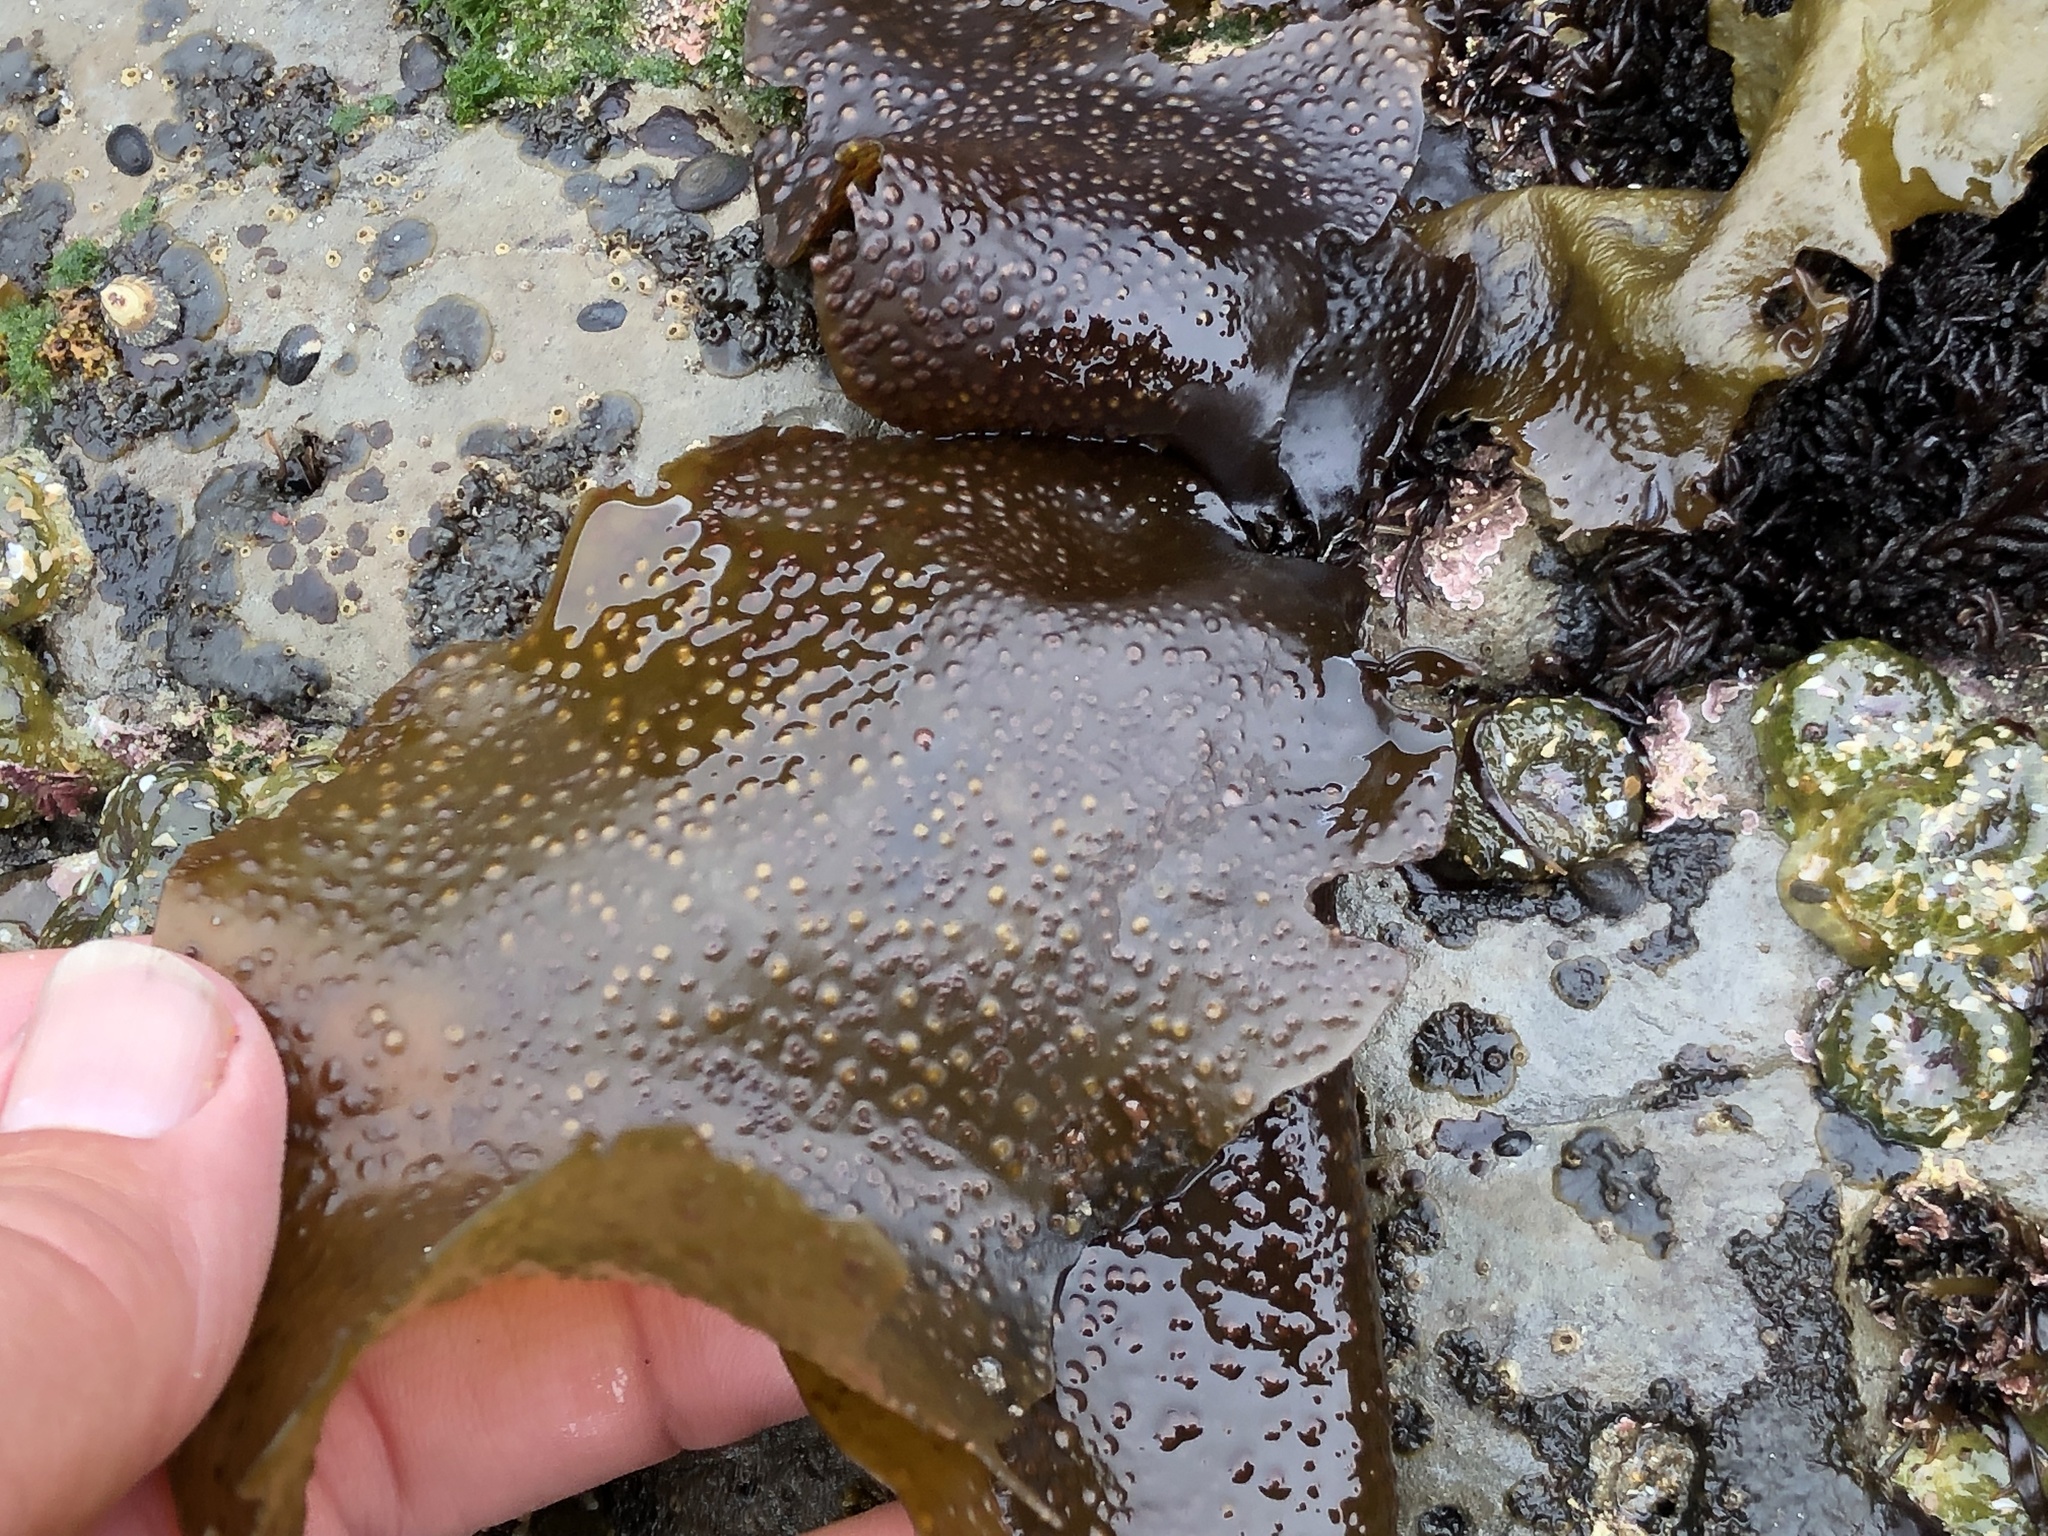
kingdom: Plantae
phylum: Rhodophyta
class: Florideophyceae
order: Gigartinales
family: Gigartinaceae
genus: Mazzaella
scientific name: Mazzaella oregona
